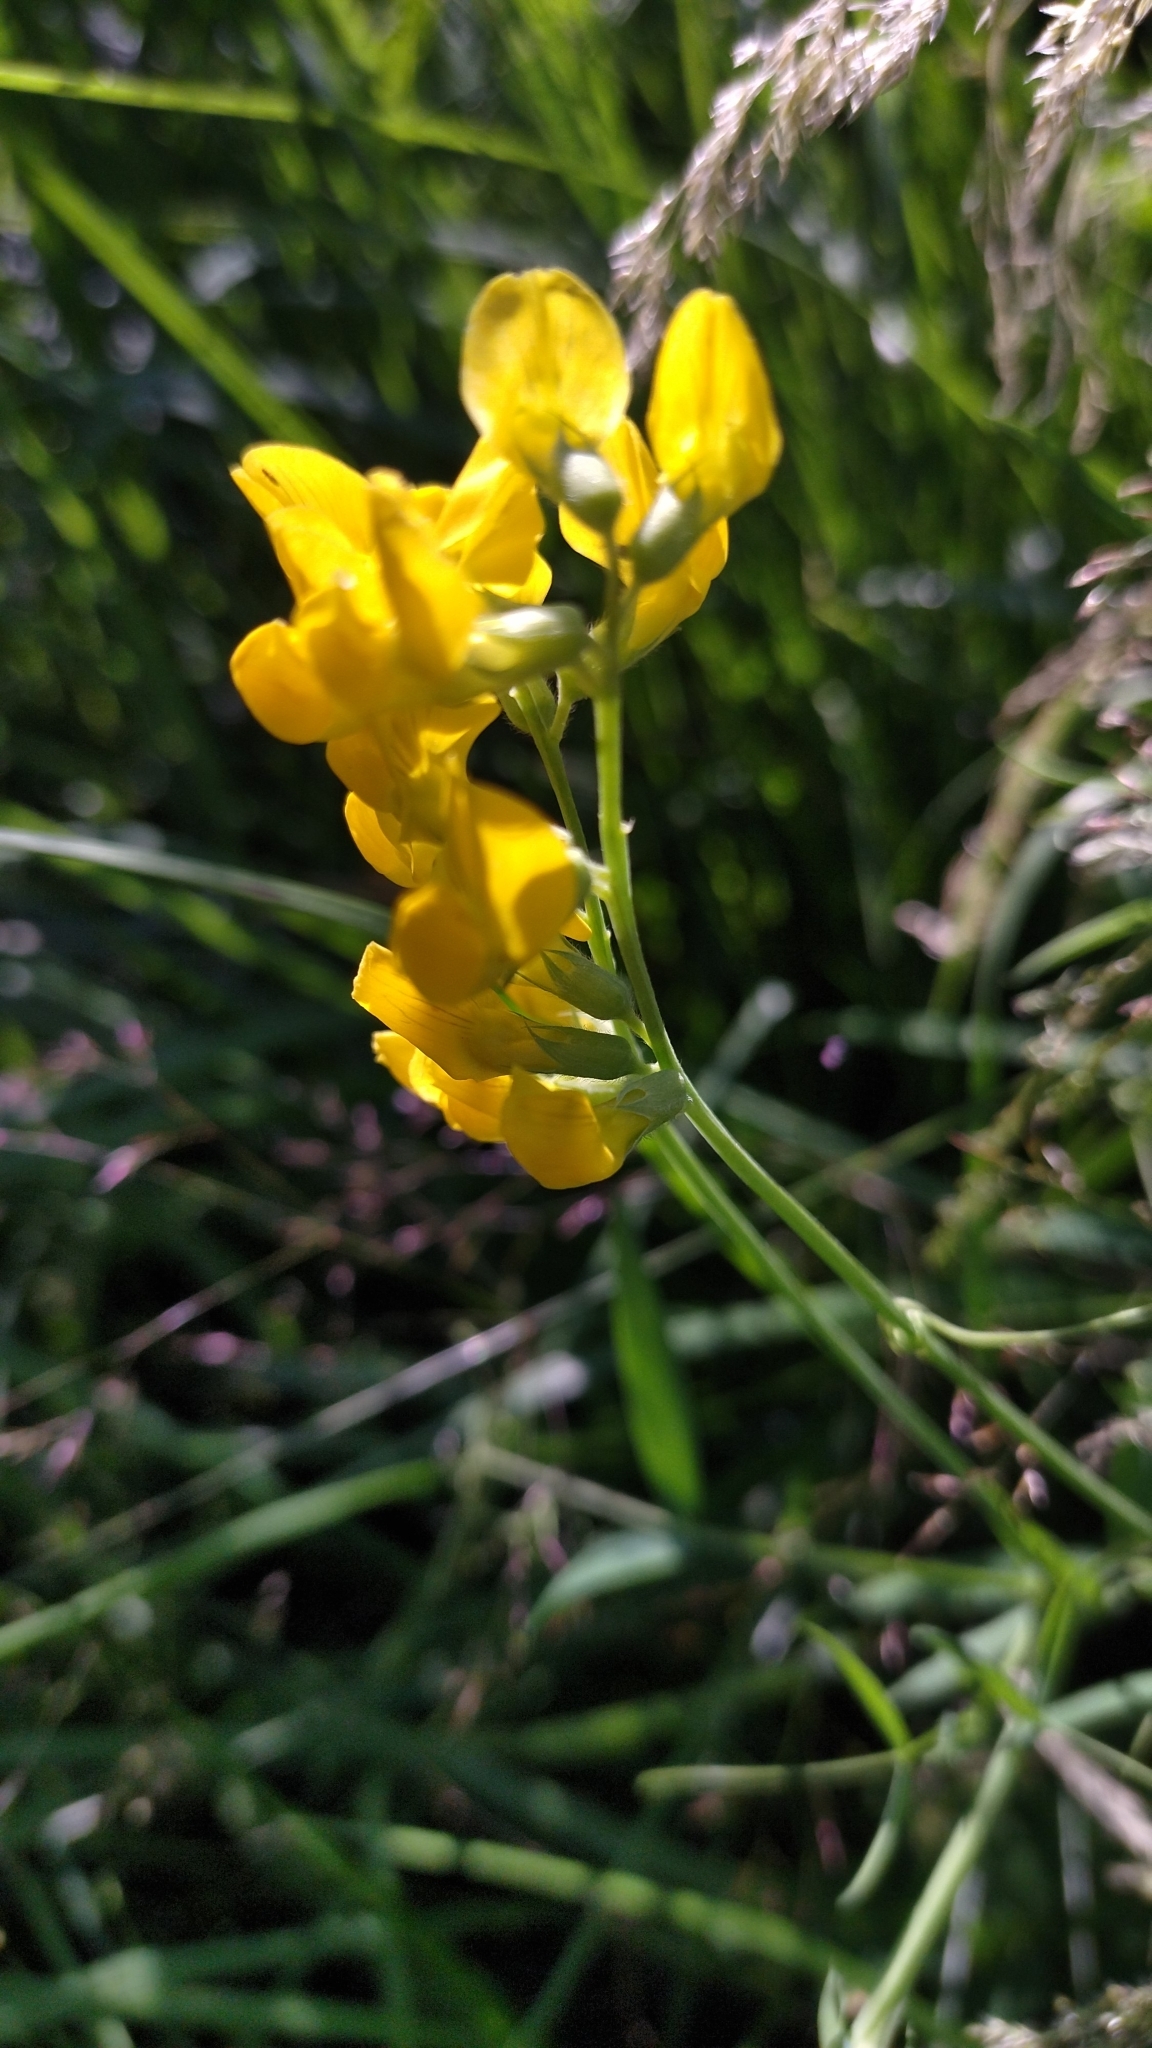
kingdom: Plantae
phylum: Tracheophyta
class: Magnoliopsida
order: Fabales
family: Fabaceae
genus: Lathyrus
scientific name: Lathyrus pratensis
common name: Meadow vetchling
